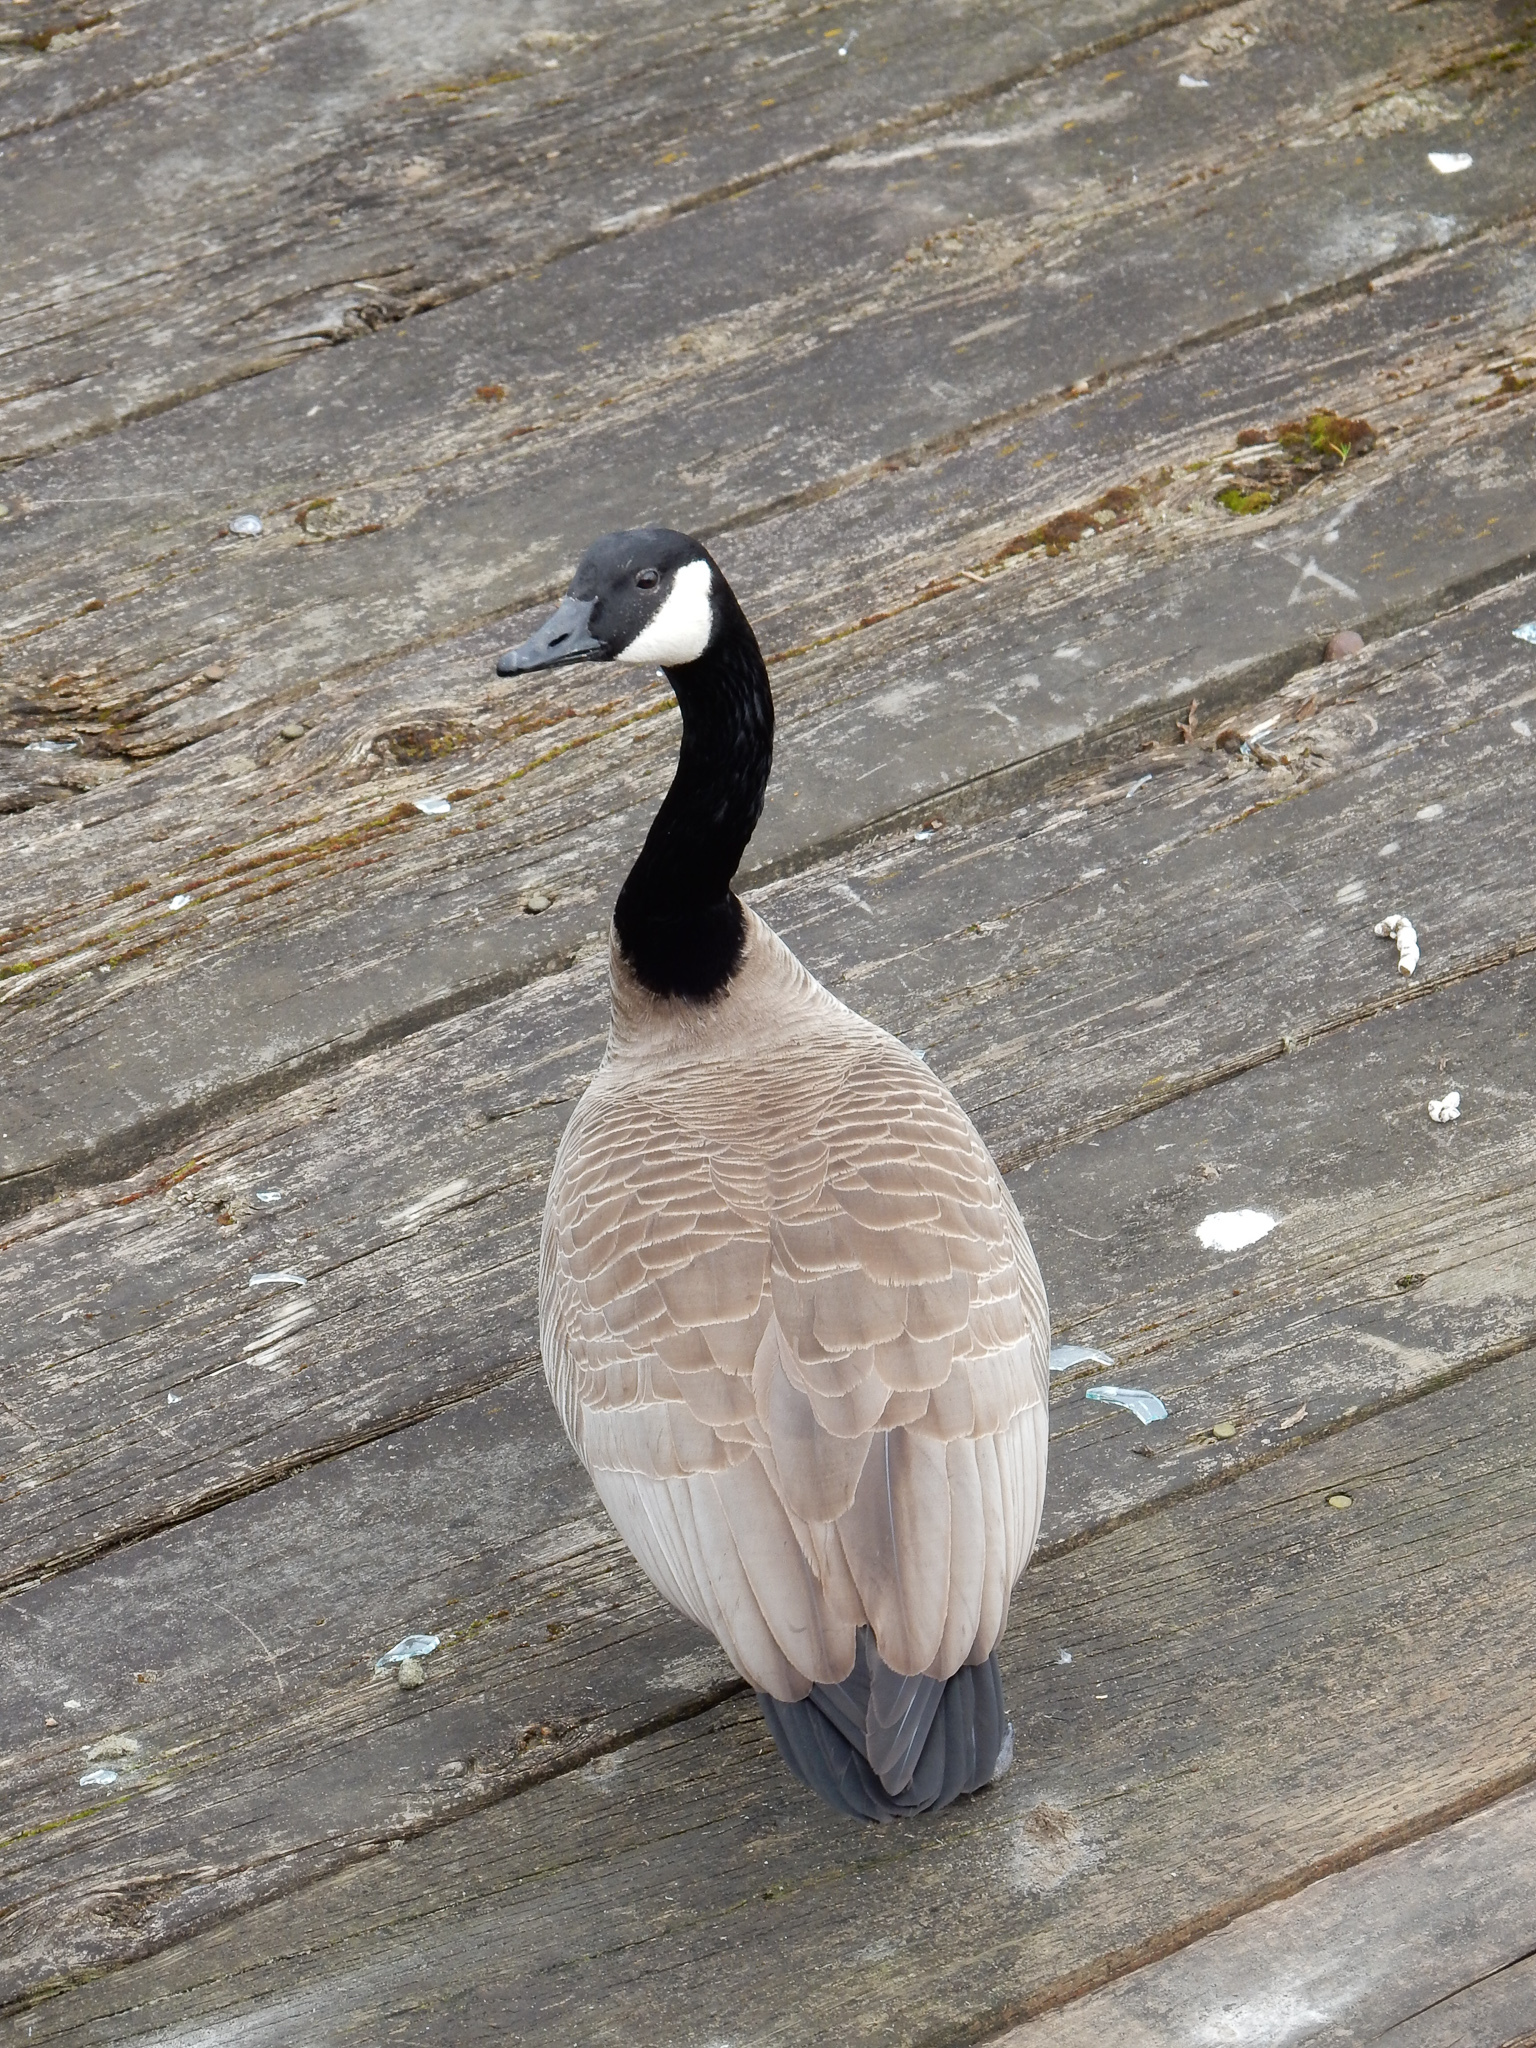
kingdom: Animalia
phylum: Chordata
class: Aves
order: Anseriformes
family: Anatidae
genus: Branta
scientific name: Branta canadensis
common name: Canada goose
